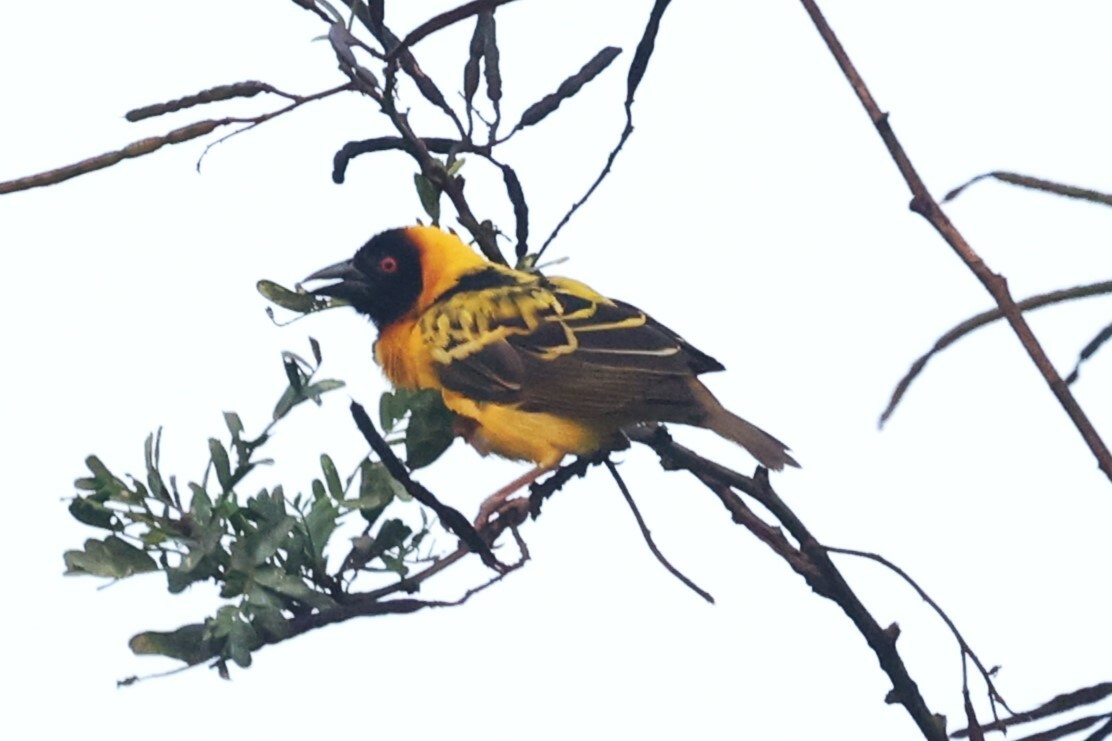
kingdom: Animalia
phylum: Chordata
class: Aves
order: Passeriformes
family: Ploceidae
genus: Ploceus
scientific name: Ploceus cucullatus
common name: Village weaver
